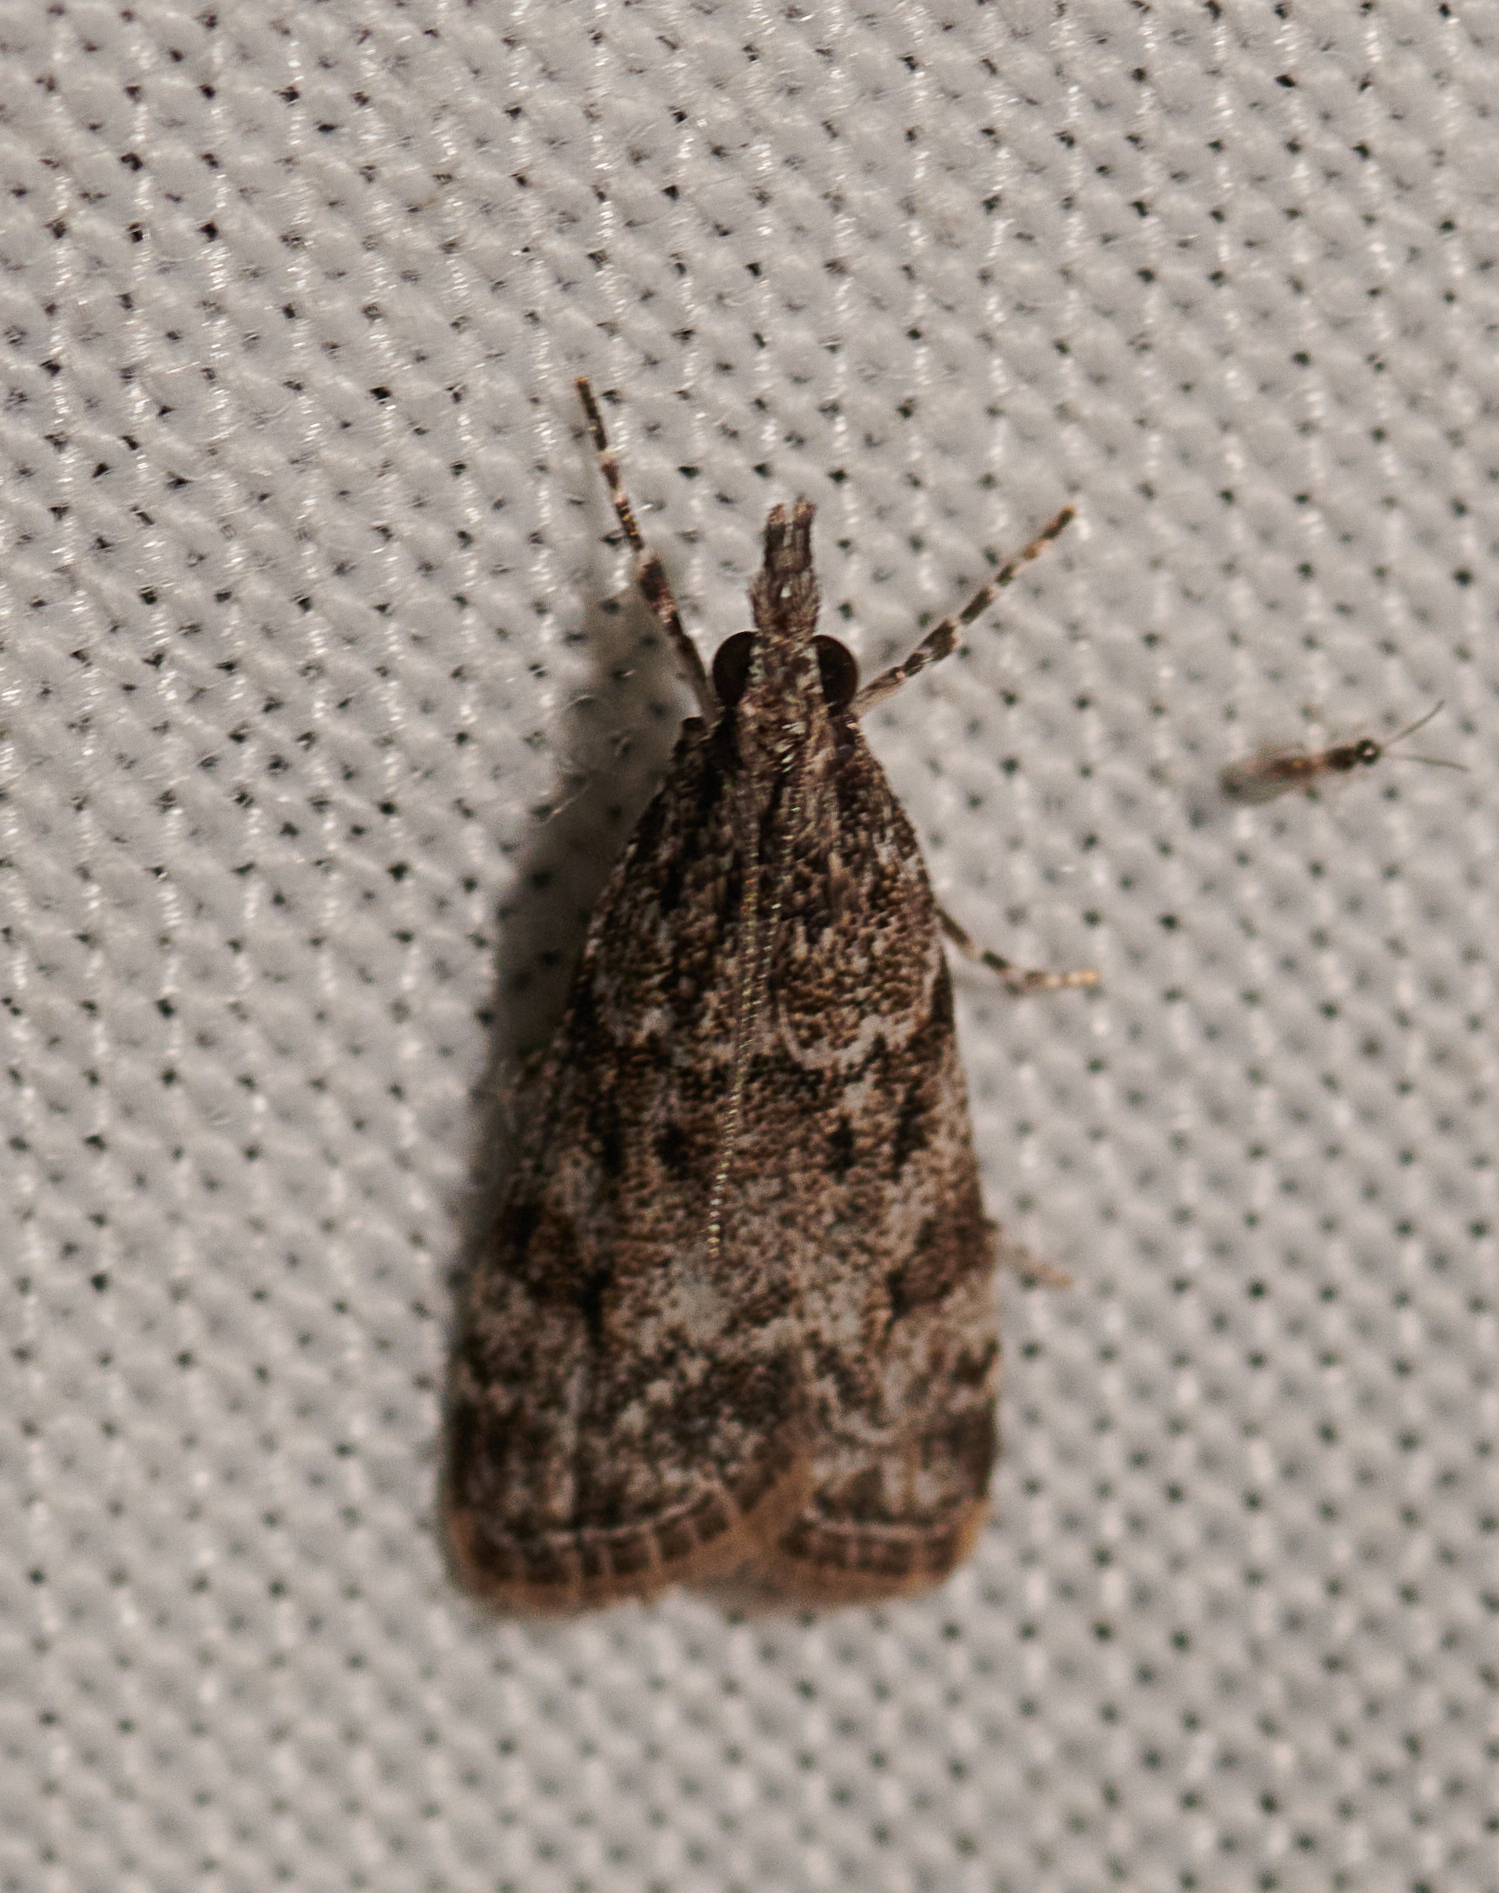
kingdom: Animalia
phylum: Arthropoda
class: Insecta
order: Lepidoptera
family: Crambidae
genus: Eudonia
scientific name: Eudonia heterosalis
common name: Mcdunnough's eudonia
